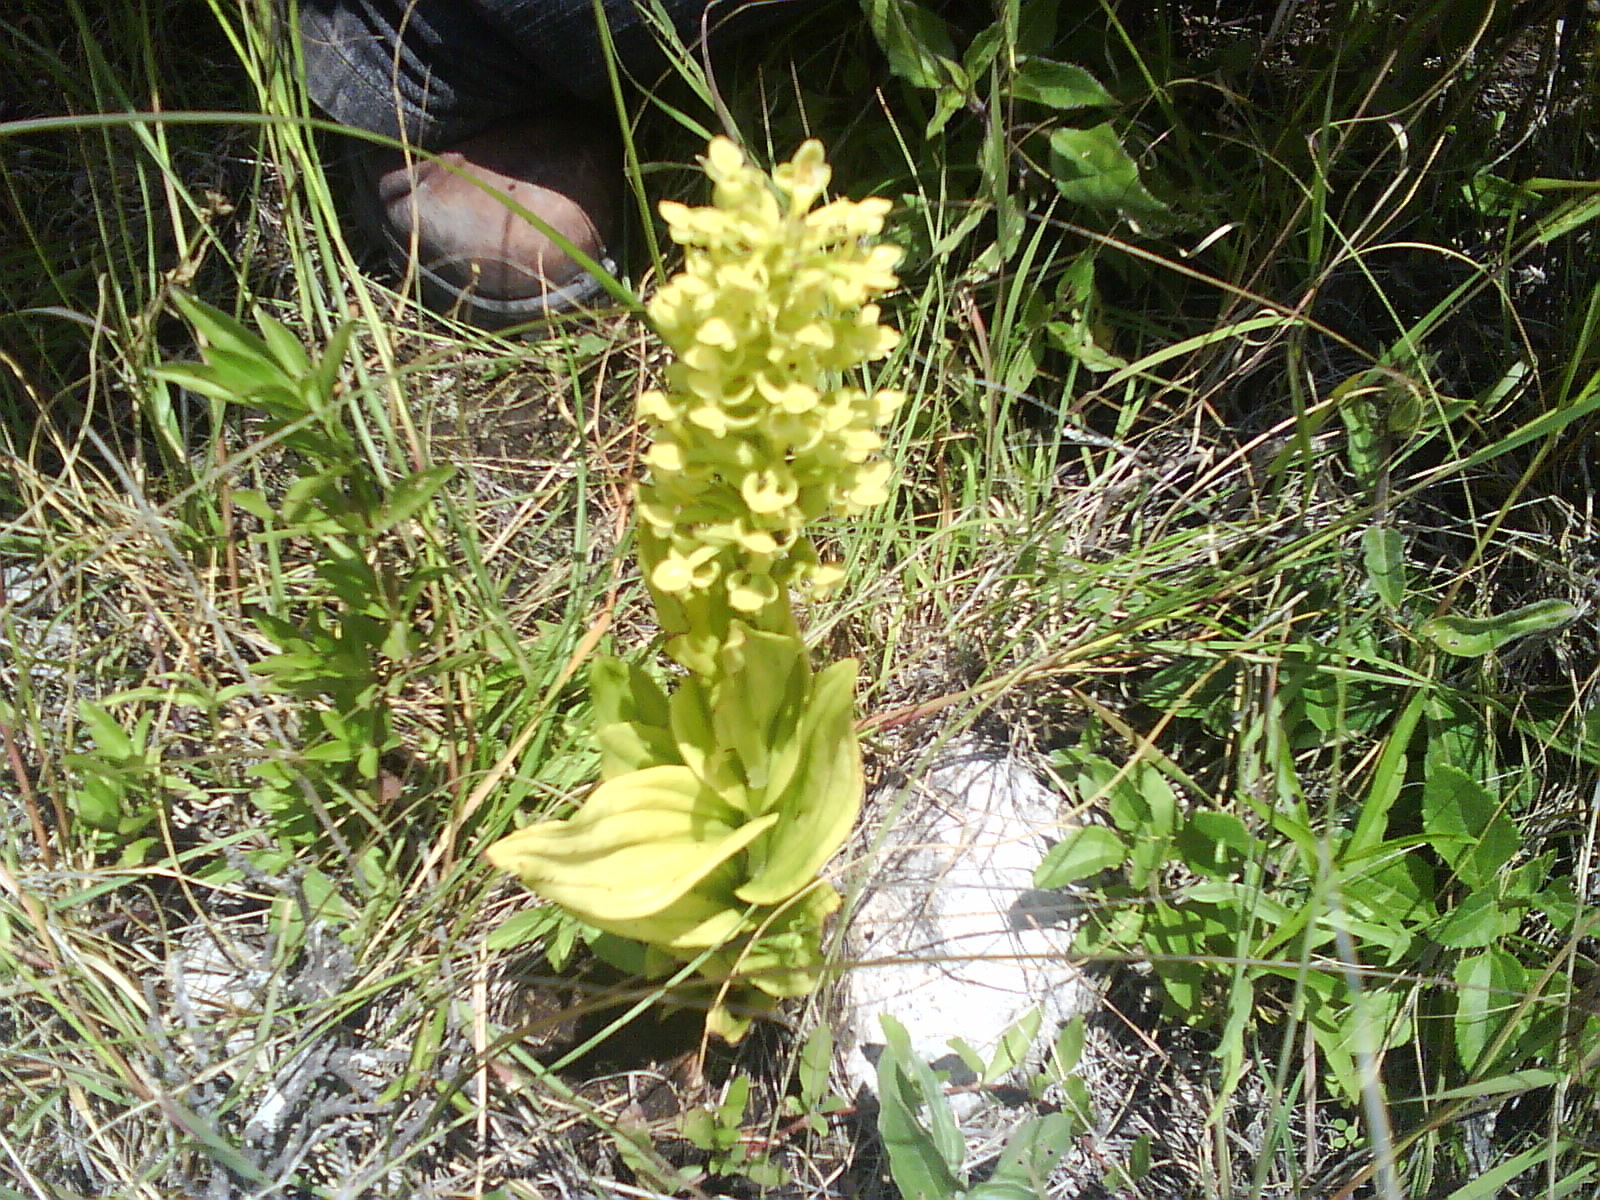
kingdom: Plantae
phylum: Tracheophyta
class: Liliopsida
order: Asparagales
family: Orchidaceae
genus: Habenaria
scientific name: Habenaria strictissima
